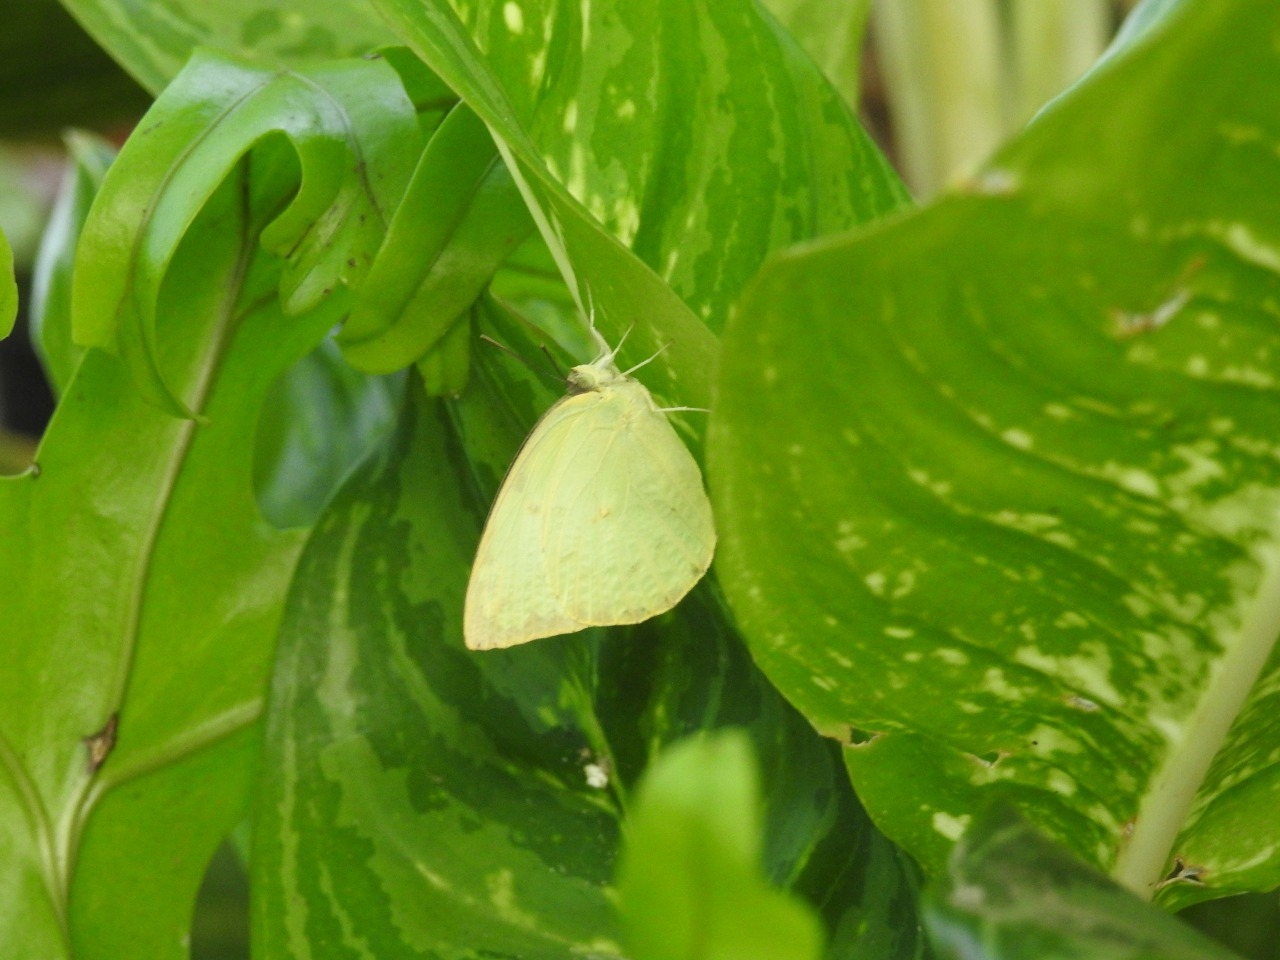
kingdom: Animalia
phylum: Arthropoda
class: Insecta
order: Lepidoptera
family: Pieridae
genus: Catopsilia
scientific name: Catopsilia pomona
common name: Common emigrant
